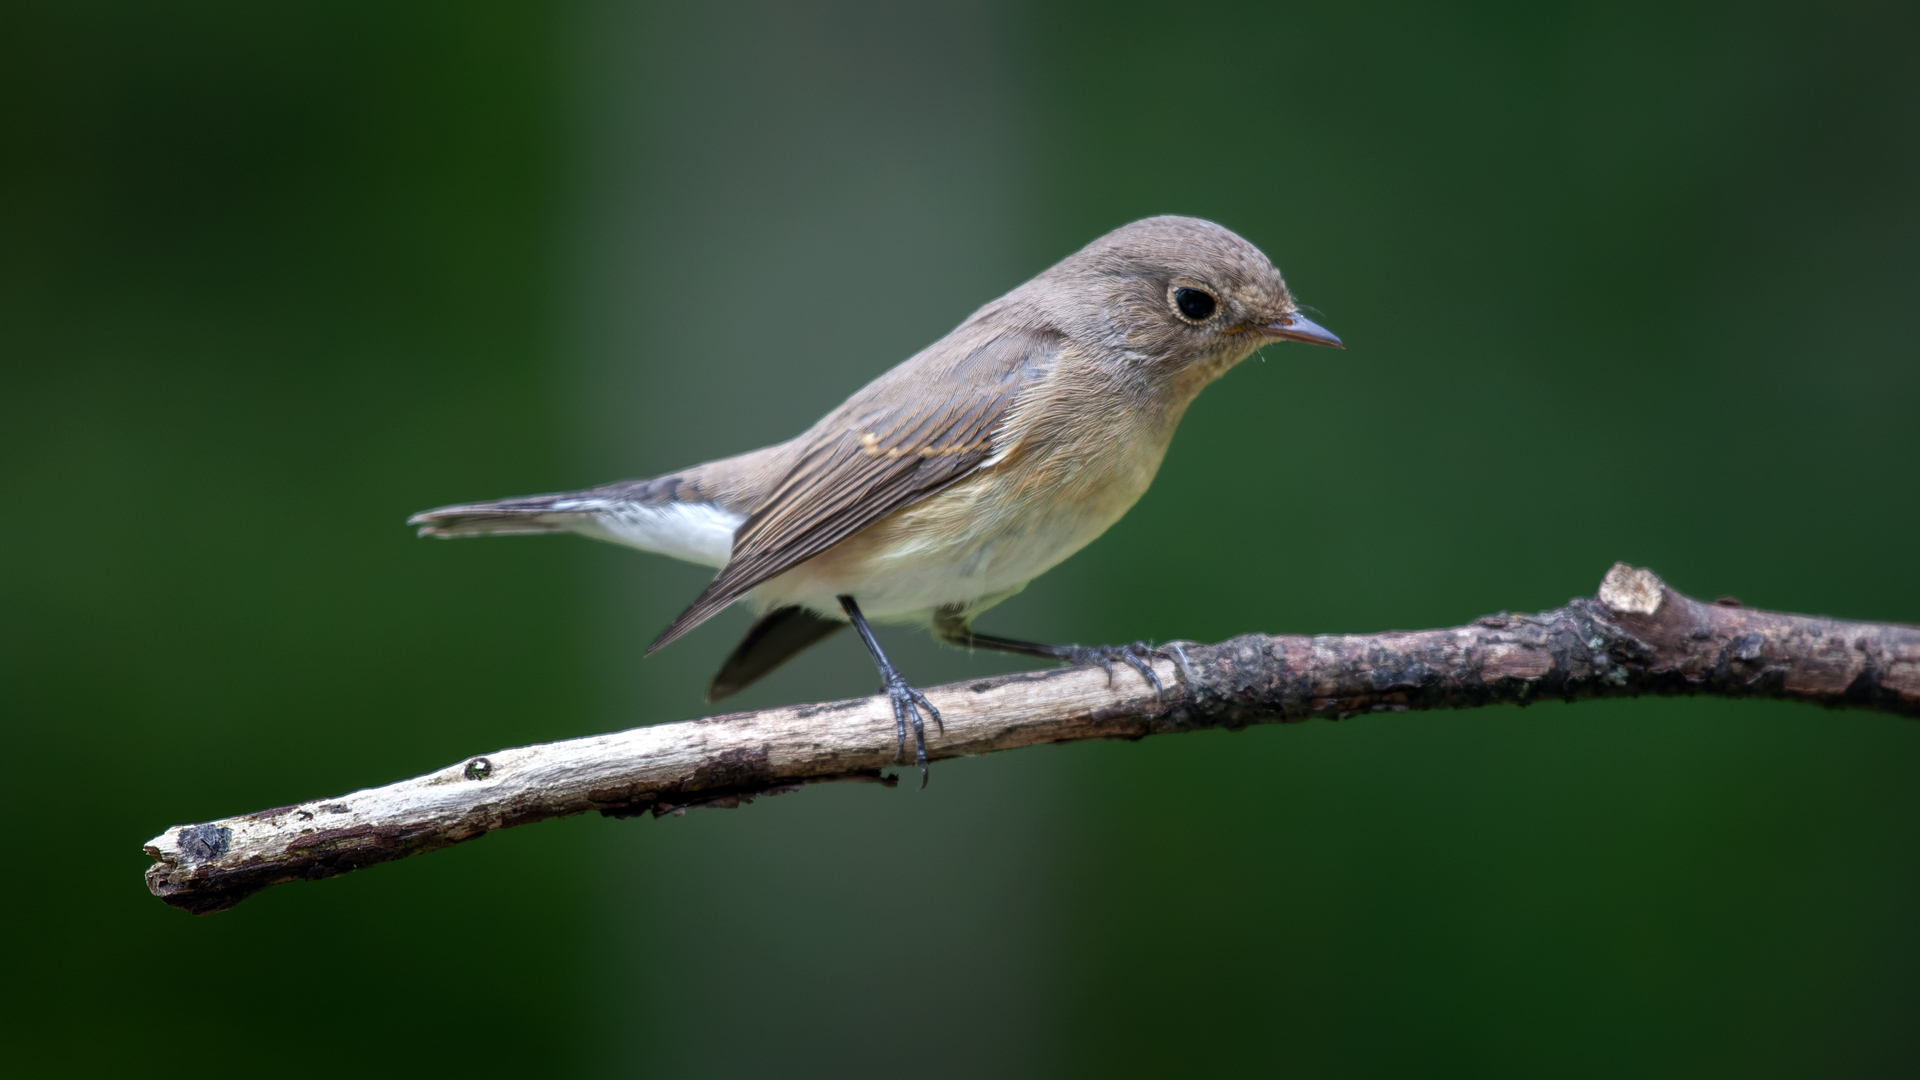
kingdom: Animalia
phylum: Chordata
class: Aves
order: Passeriformes
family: Muscicapidae
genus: Ficedula
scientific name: Ficedula parva
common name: Red-breasted flycatcher
